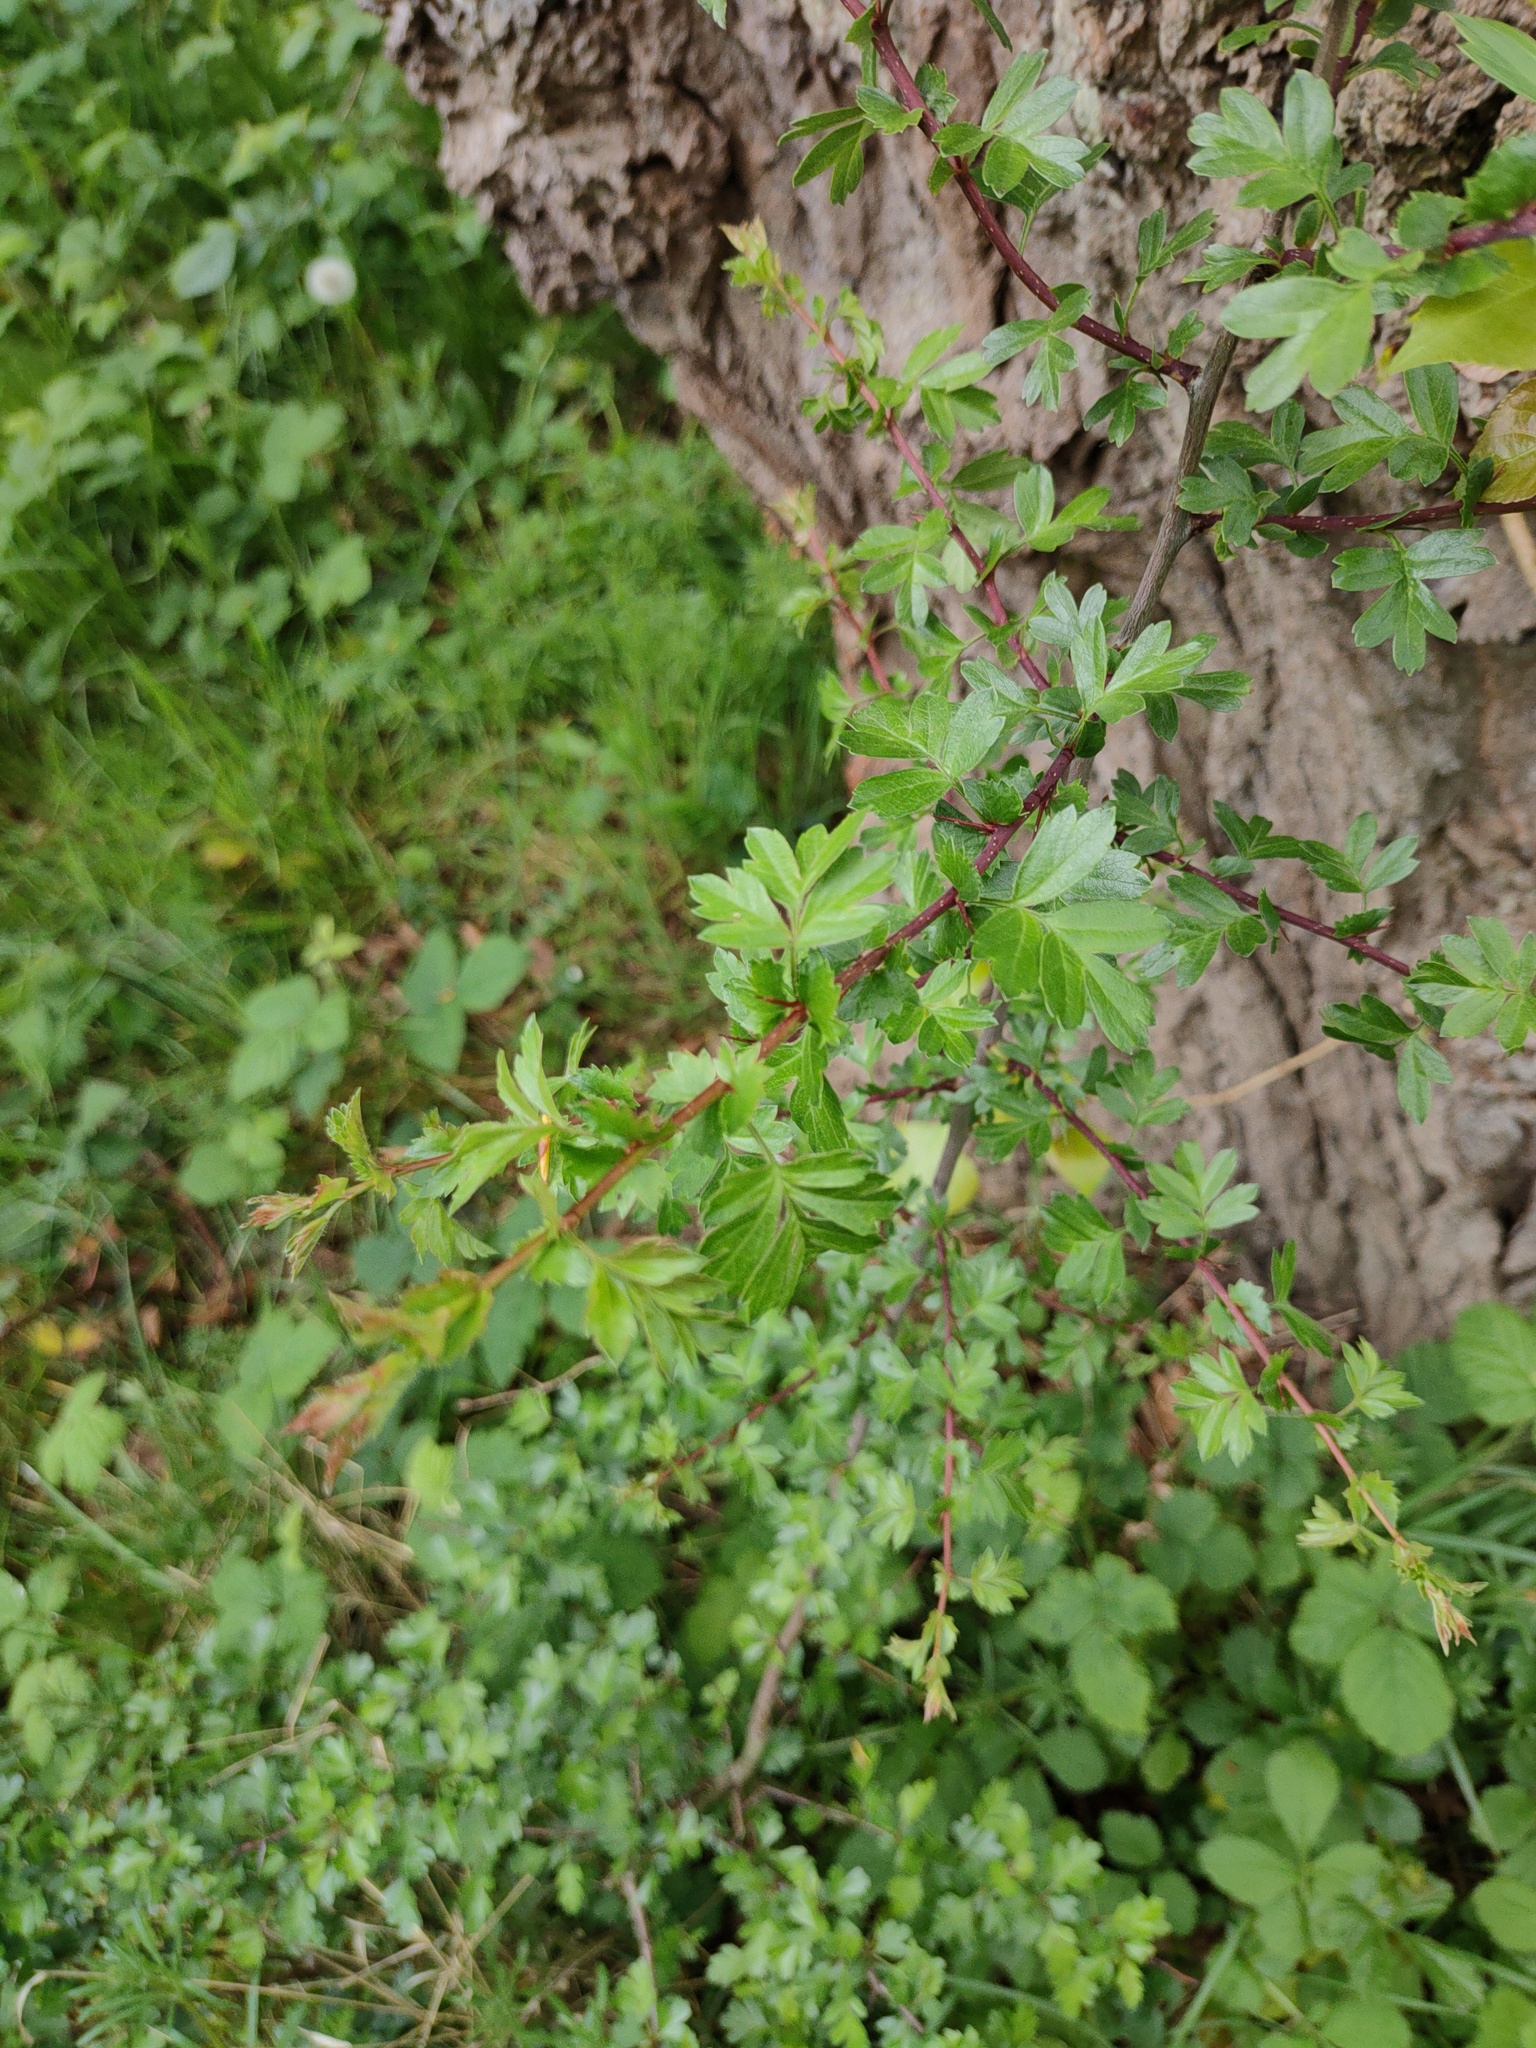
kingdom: Plantae
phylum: Tracheophyta
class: Magnoliopsida
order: Rosales
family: Rosaceae
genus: Crataegus
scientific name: Crataegus monogyna
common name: Hawthorn
